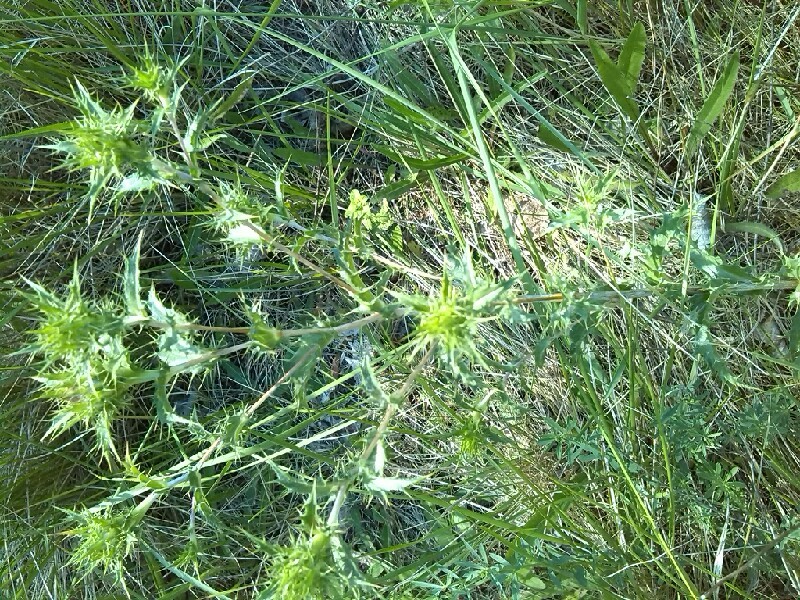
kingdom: Plantae
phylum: Tracheophyta
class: Magnoliopsida
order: Asterales
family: Asteraceae
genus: Carlina
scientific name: Carlina vulgaris
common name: Carline thistle
